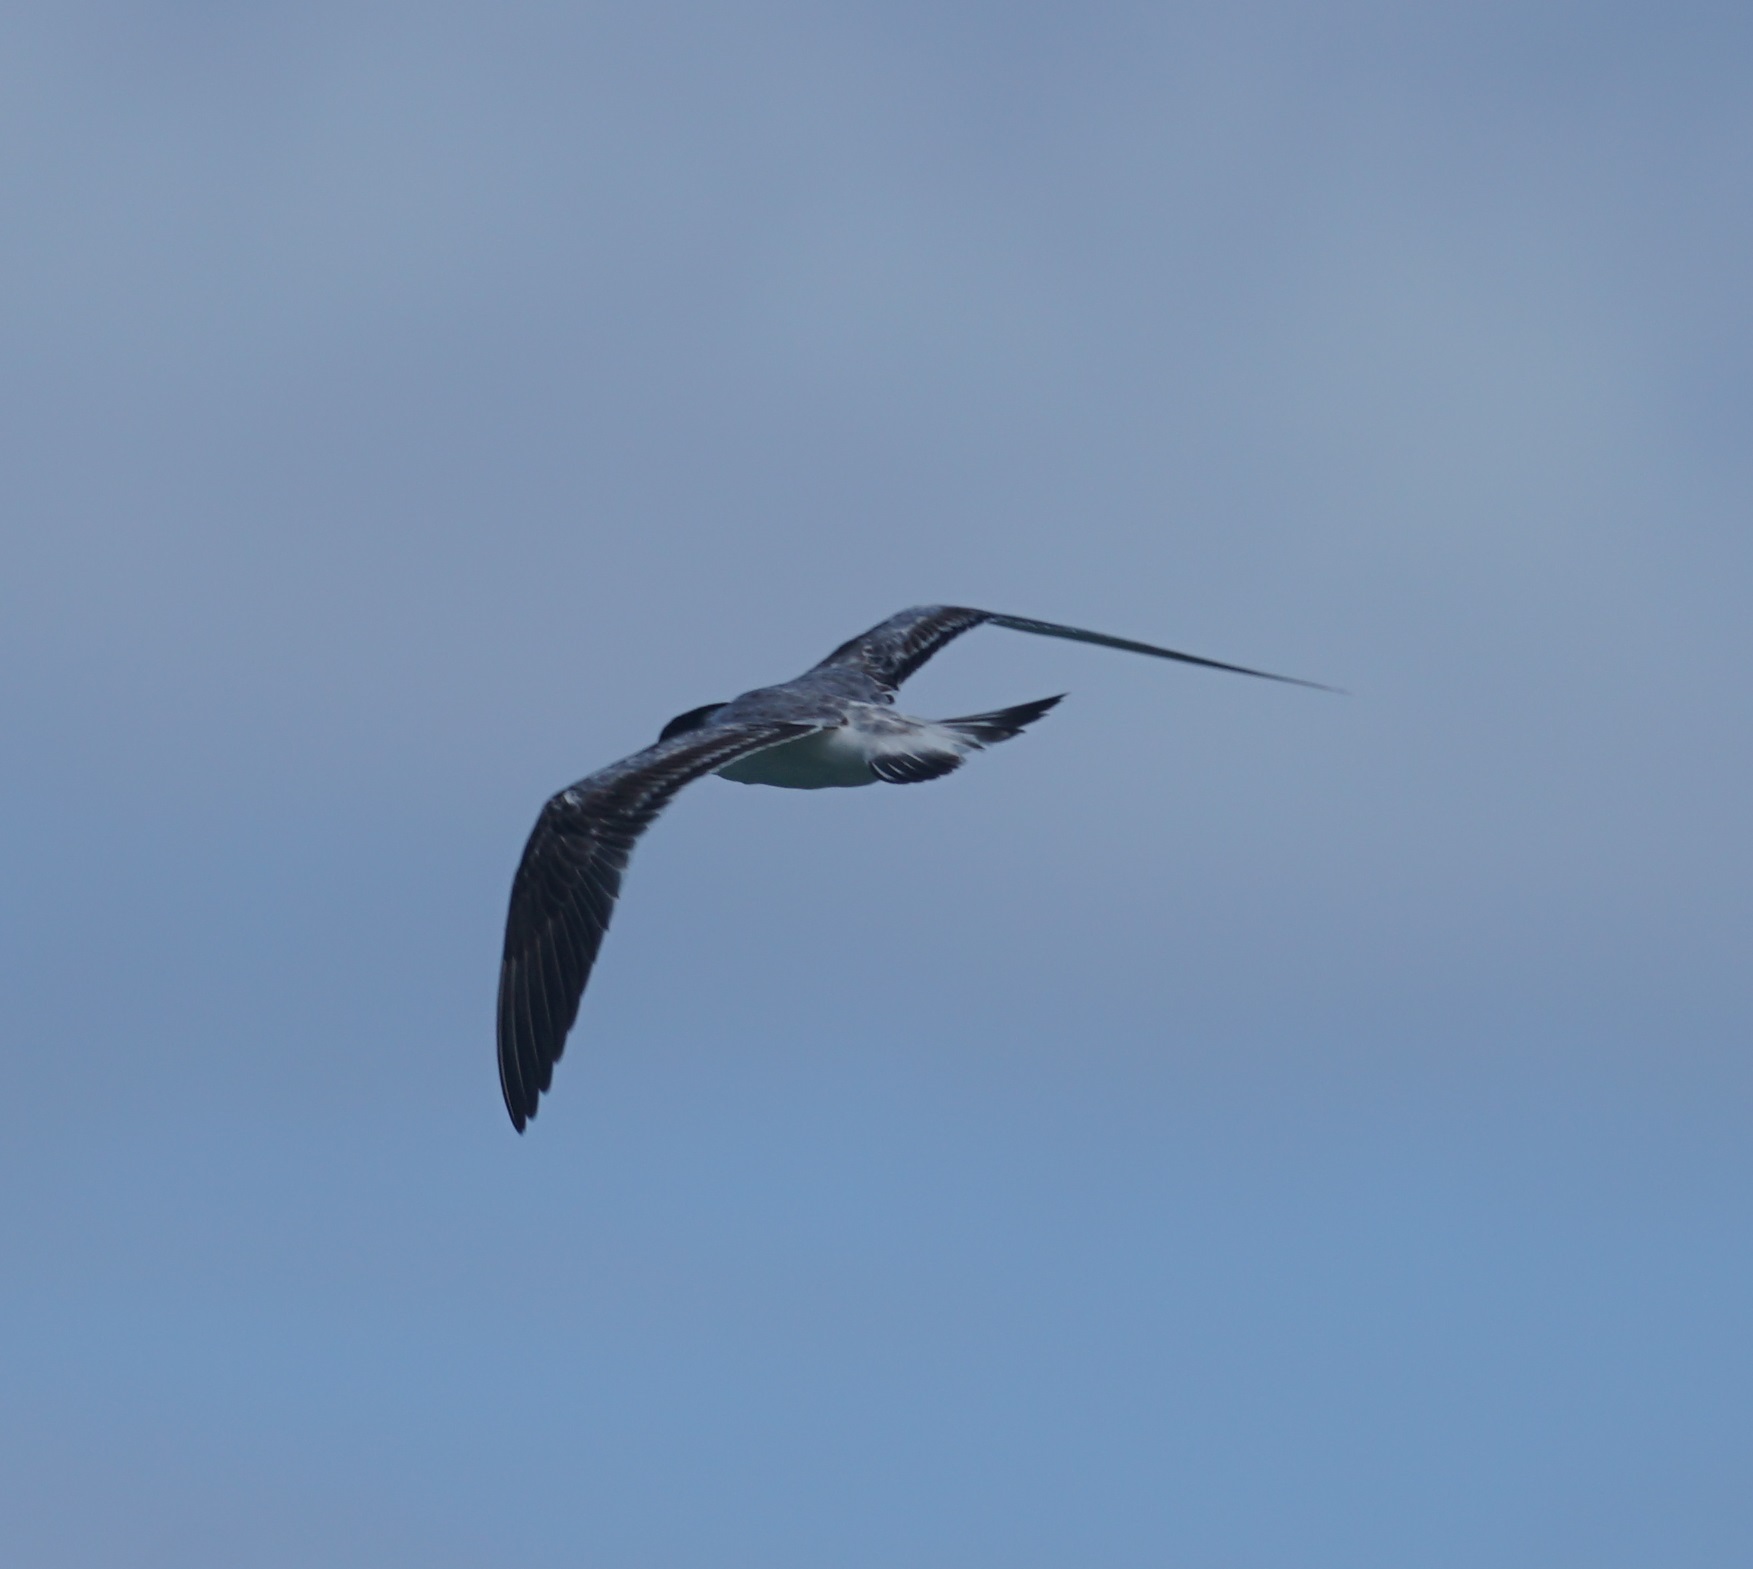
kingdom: Animalia
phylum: Chordata
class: Aves
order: Charadriiformes
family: Laridae
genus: Thalasseus
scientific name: Thalasseus bergii
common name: Greater crested tern
